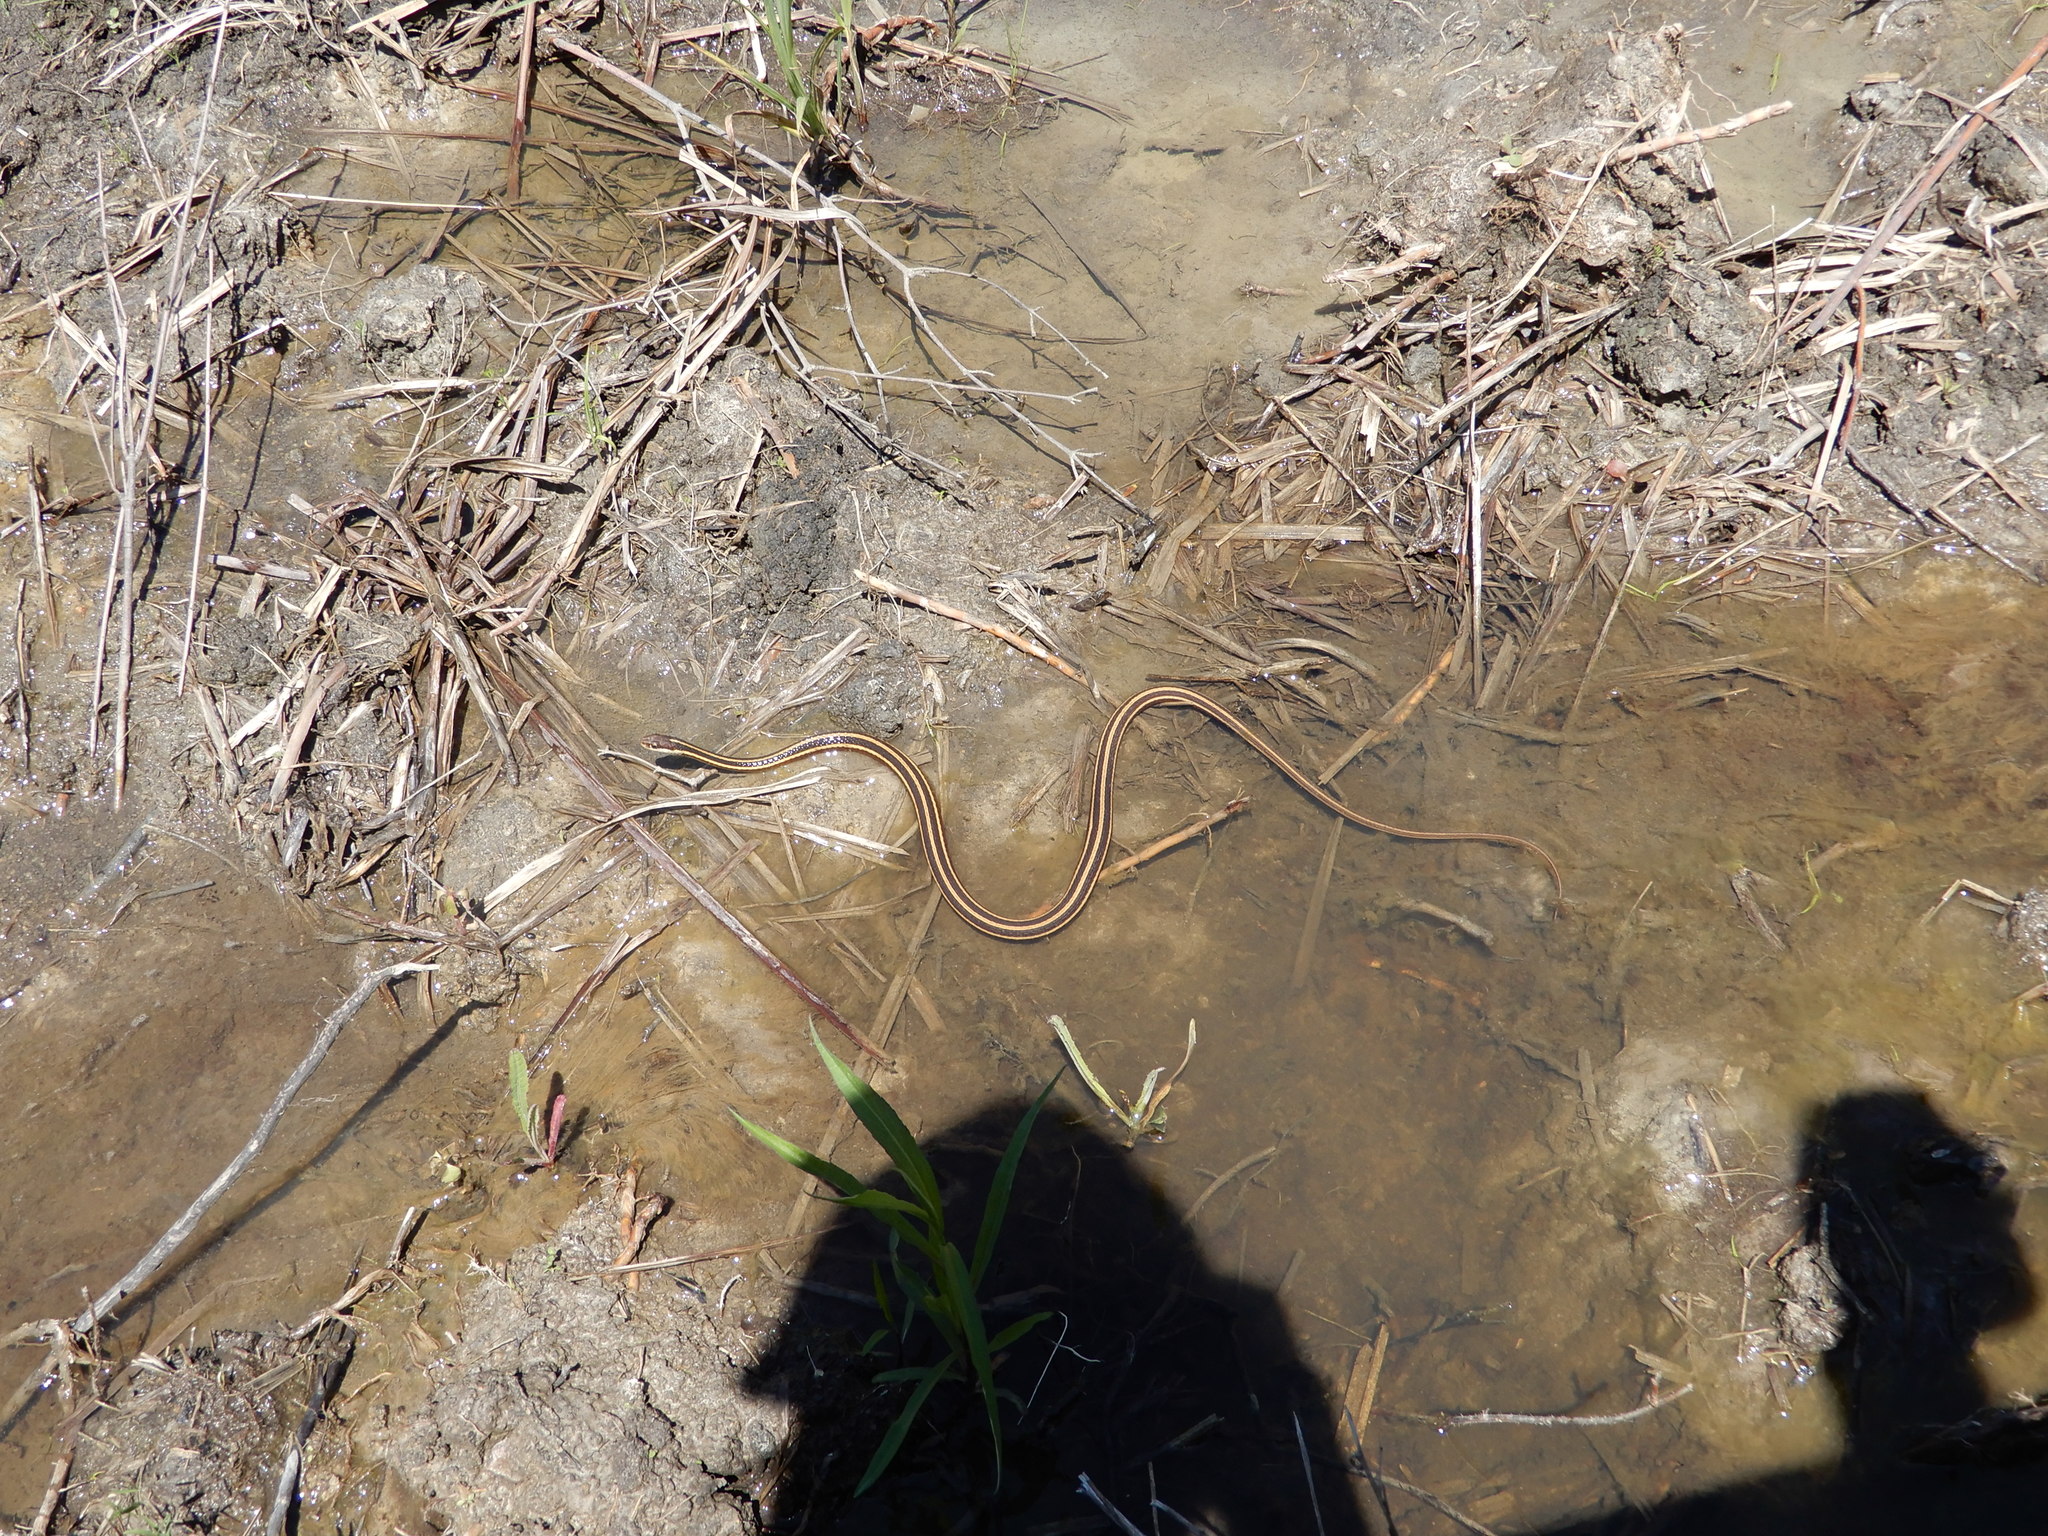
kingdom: Animalia
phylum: Chordata
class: Squamata
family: Colubridae
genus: Thamnophis
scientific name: Thamnophis saurita
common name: Eastern ribbonsnake
